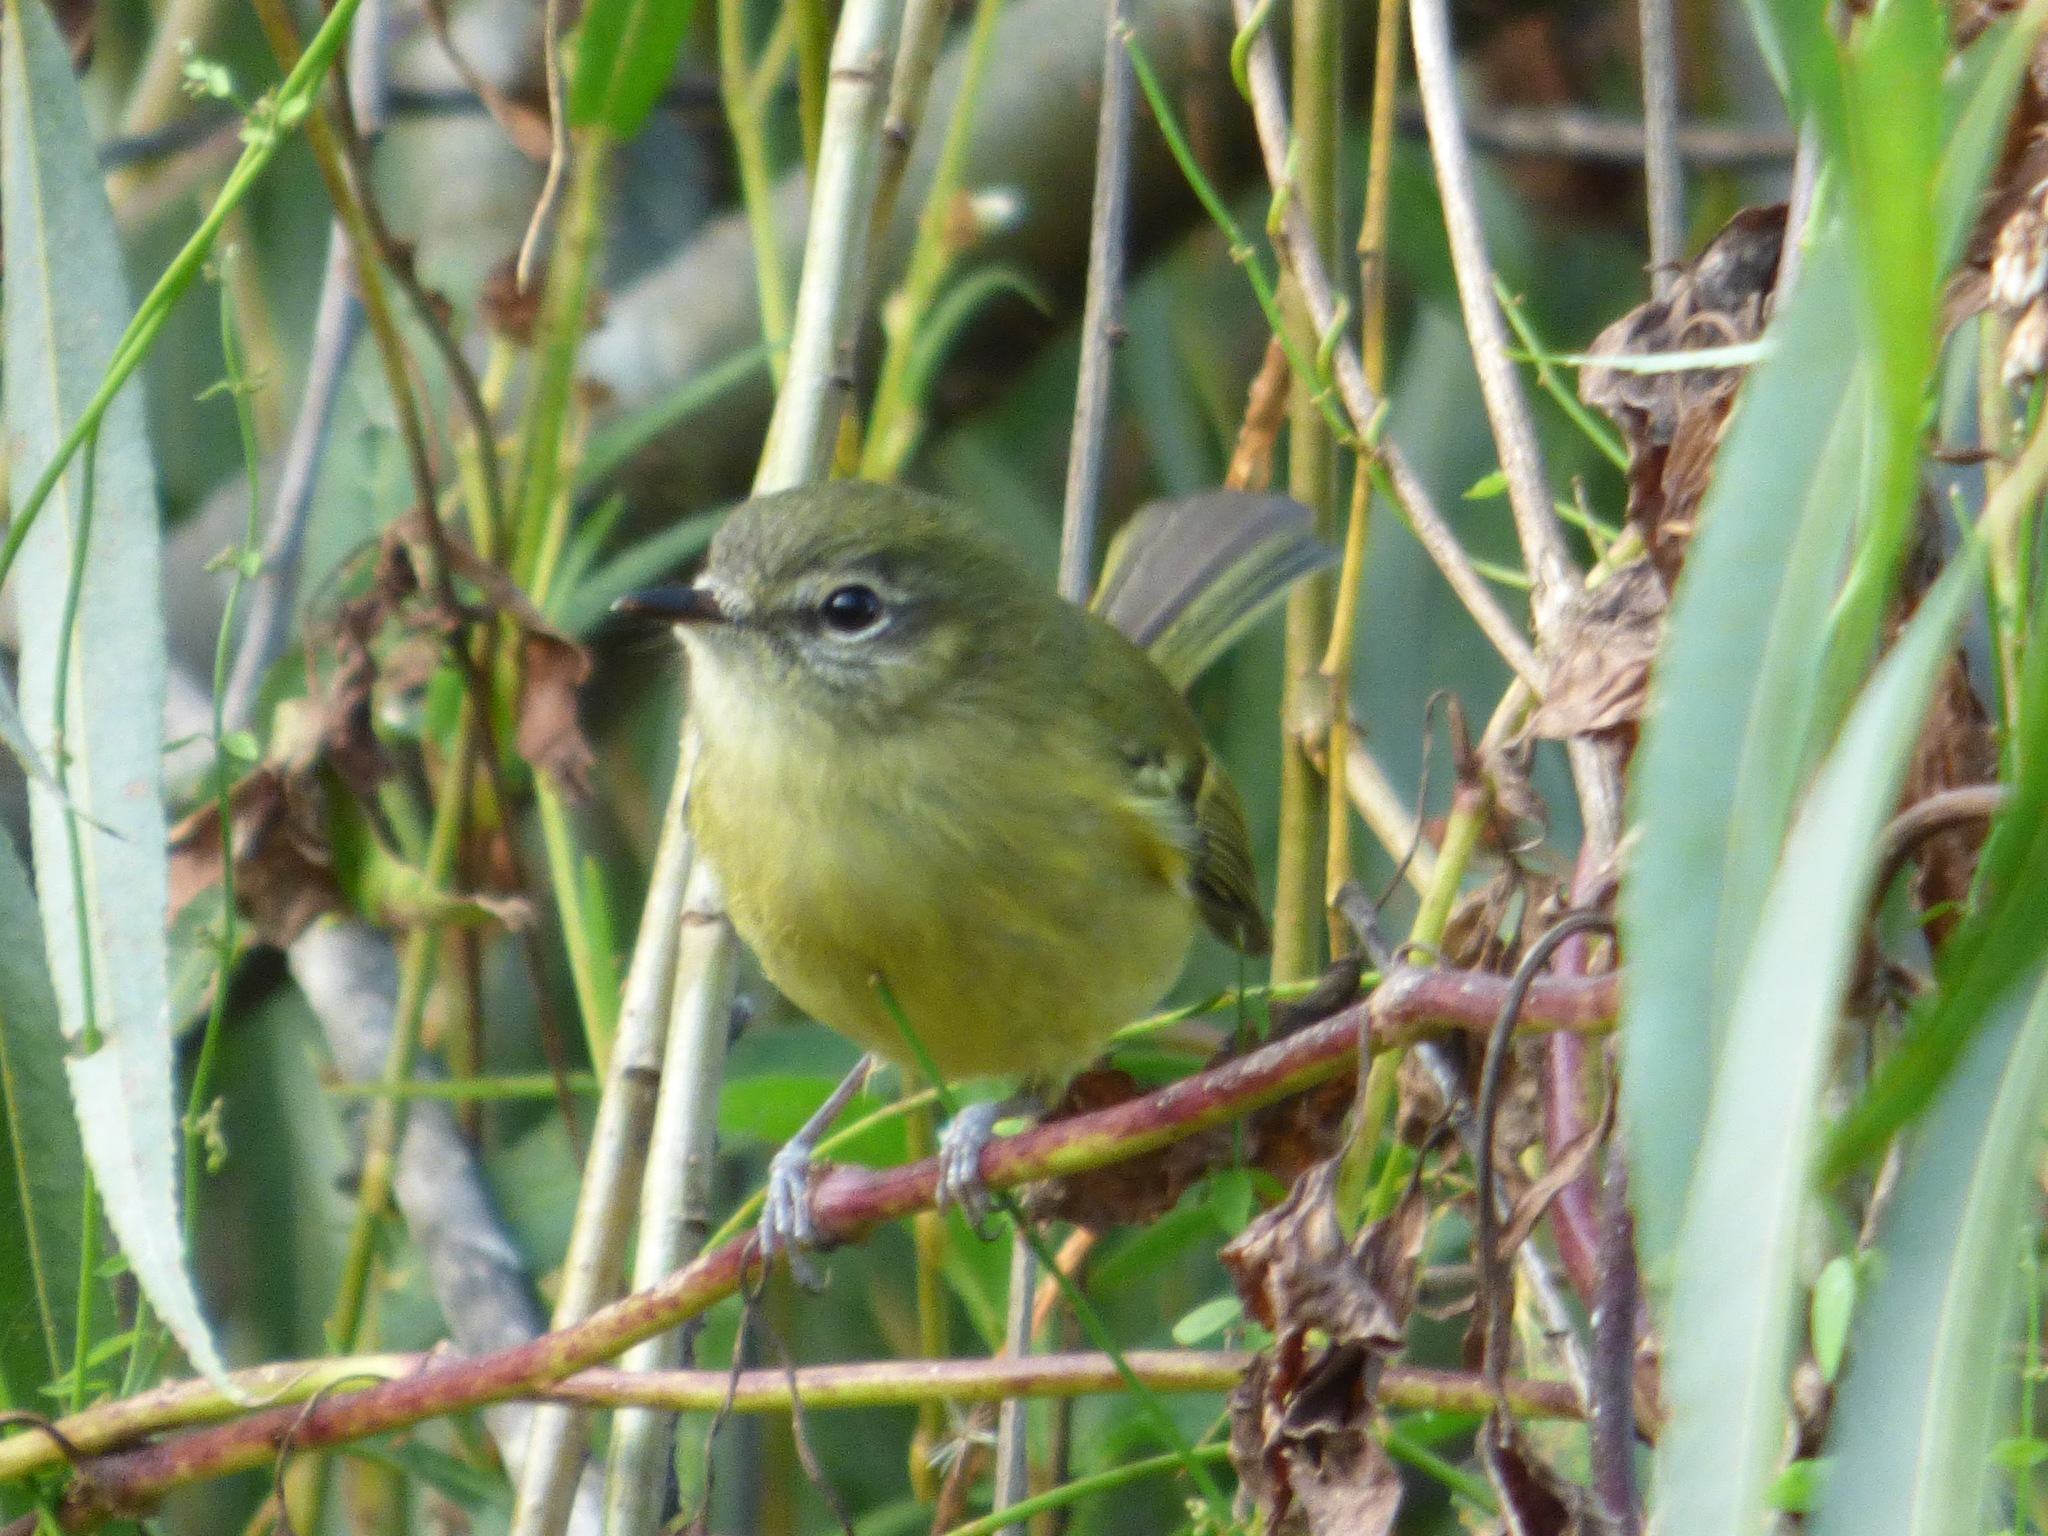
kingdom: Animalia
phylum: Chordata
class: Aves
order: Passeriformes
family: Tyrannidae
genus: Phylloscartes
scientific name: Phylloscartes ventralis
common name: Mottle-cheeked tyrannulet
